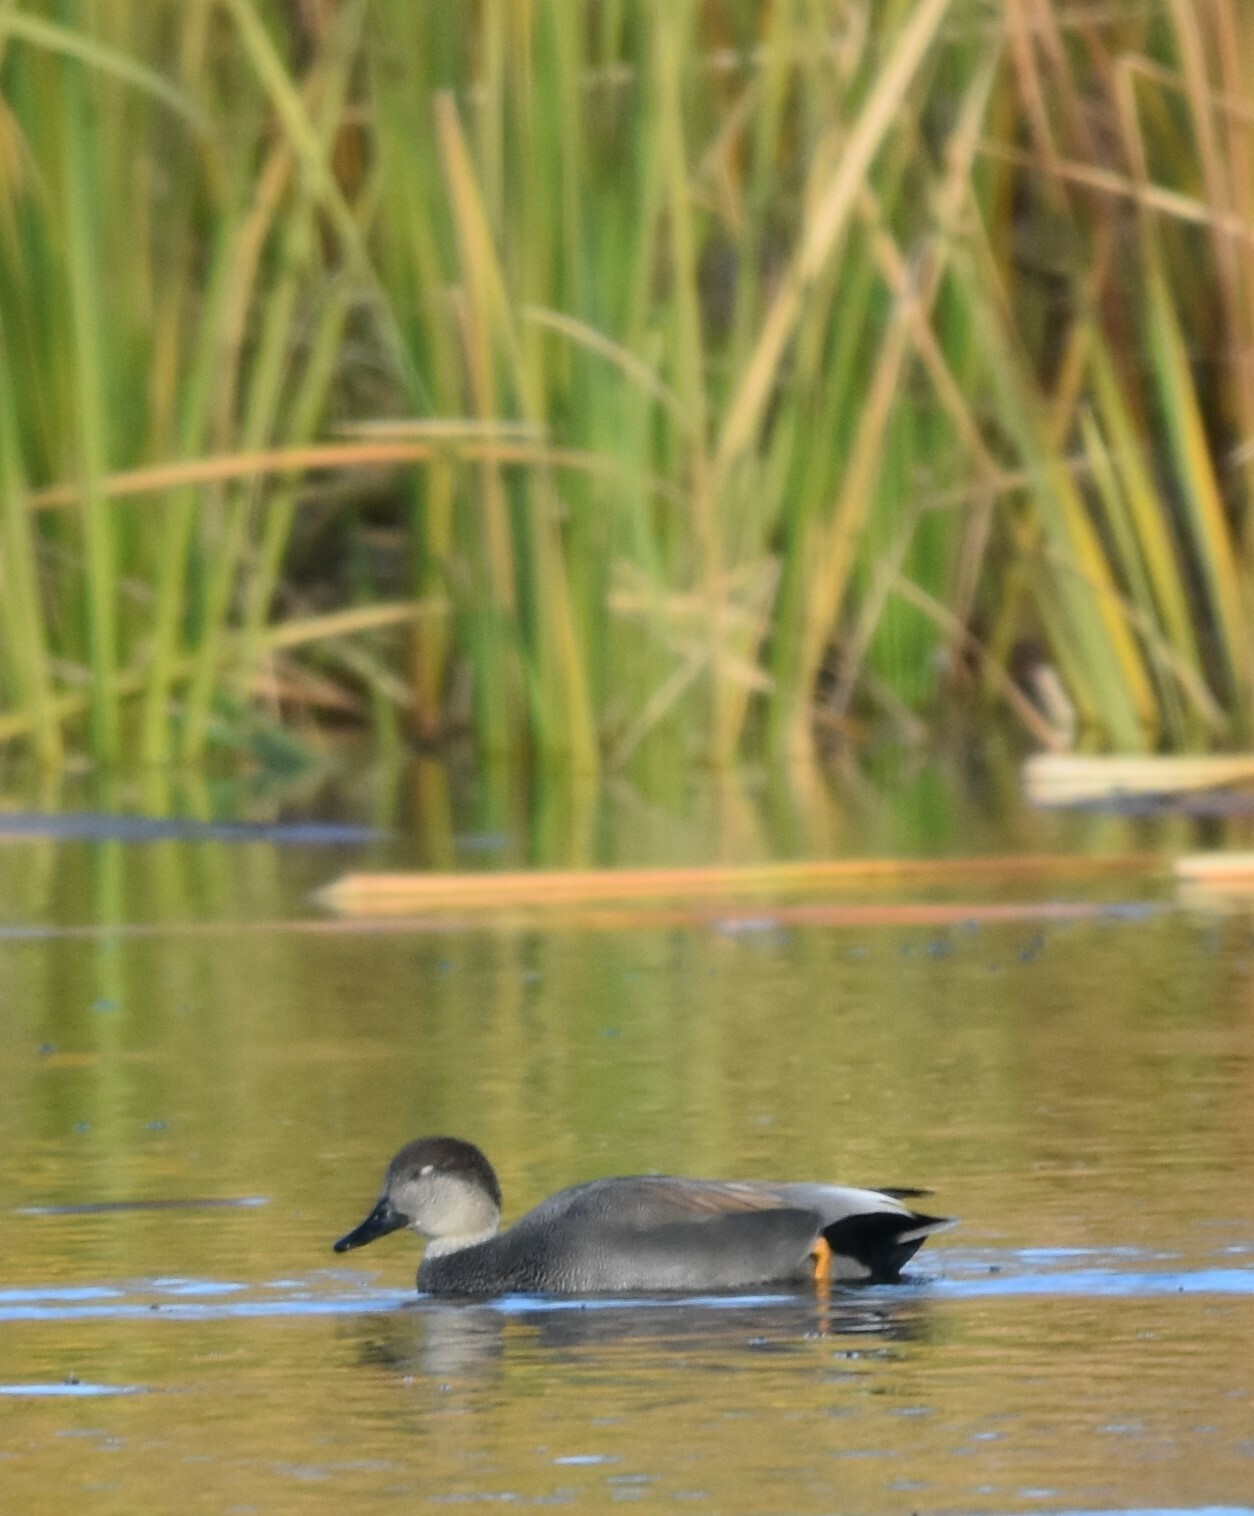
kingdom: Animalia
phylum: Chordata
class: Aves
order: Anseriformes
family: Anatidae
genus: Mareca
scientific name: Mareca strepera
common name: Gadwall
